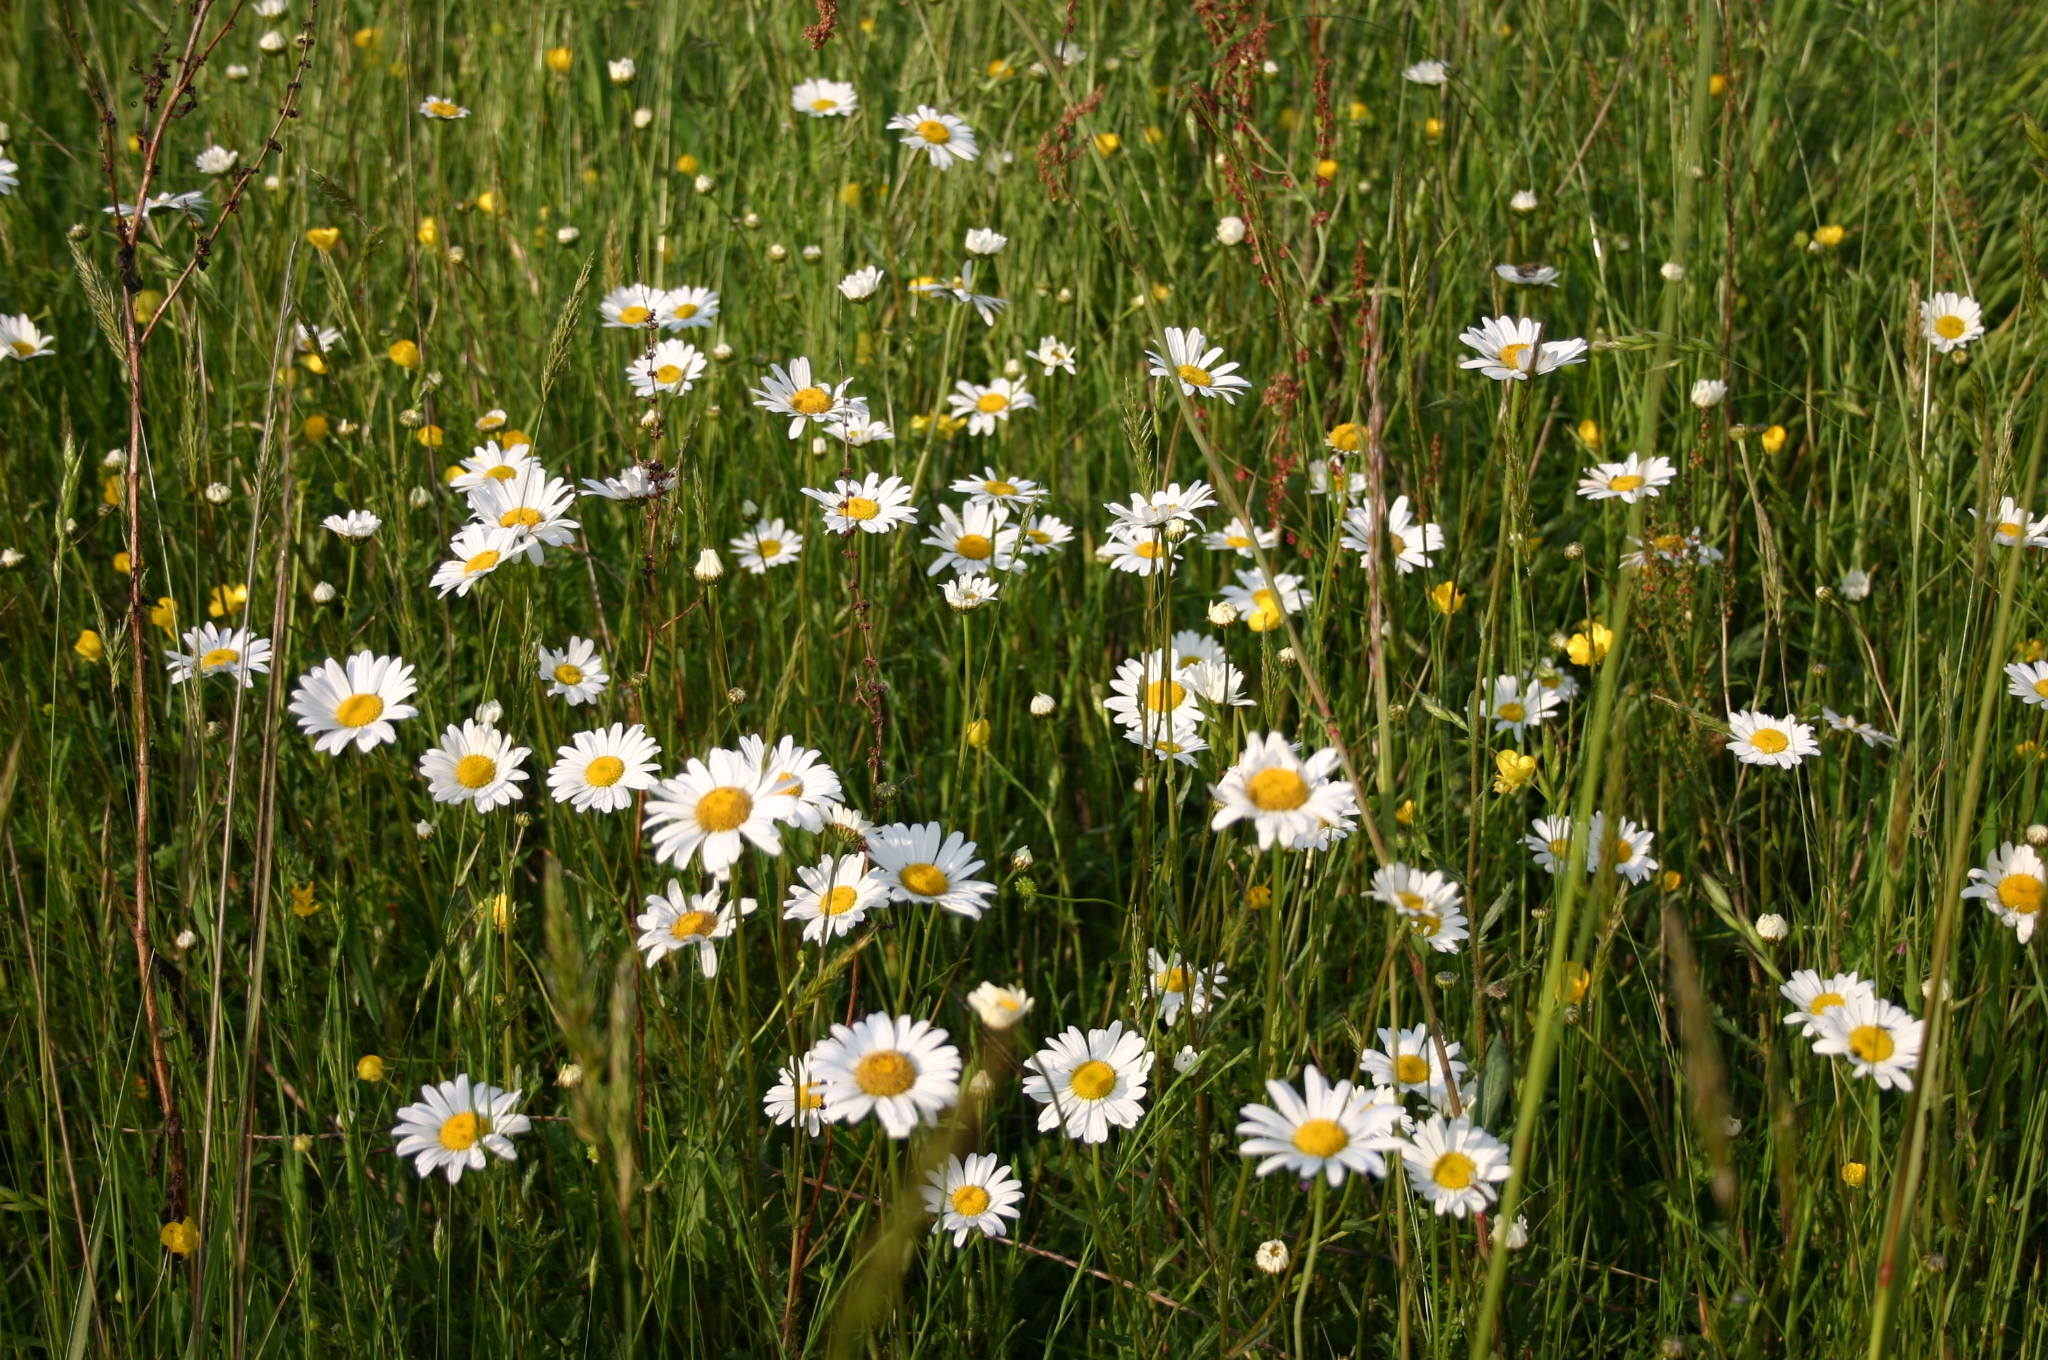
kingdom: Plantae
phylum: Tracheophyta
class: Magnoliopsida
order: Asterales
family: Asteraceae
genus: Leucanthemum
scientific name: Leucanthemum vulgare
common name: Oxeye daisy
